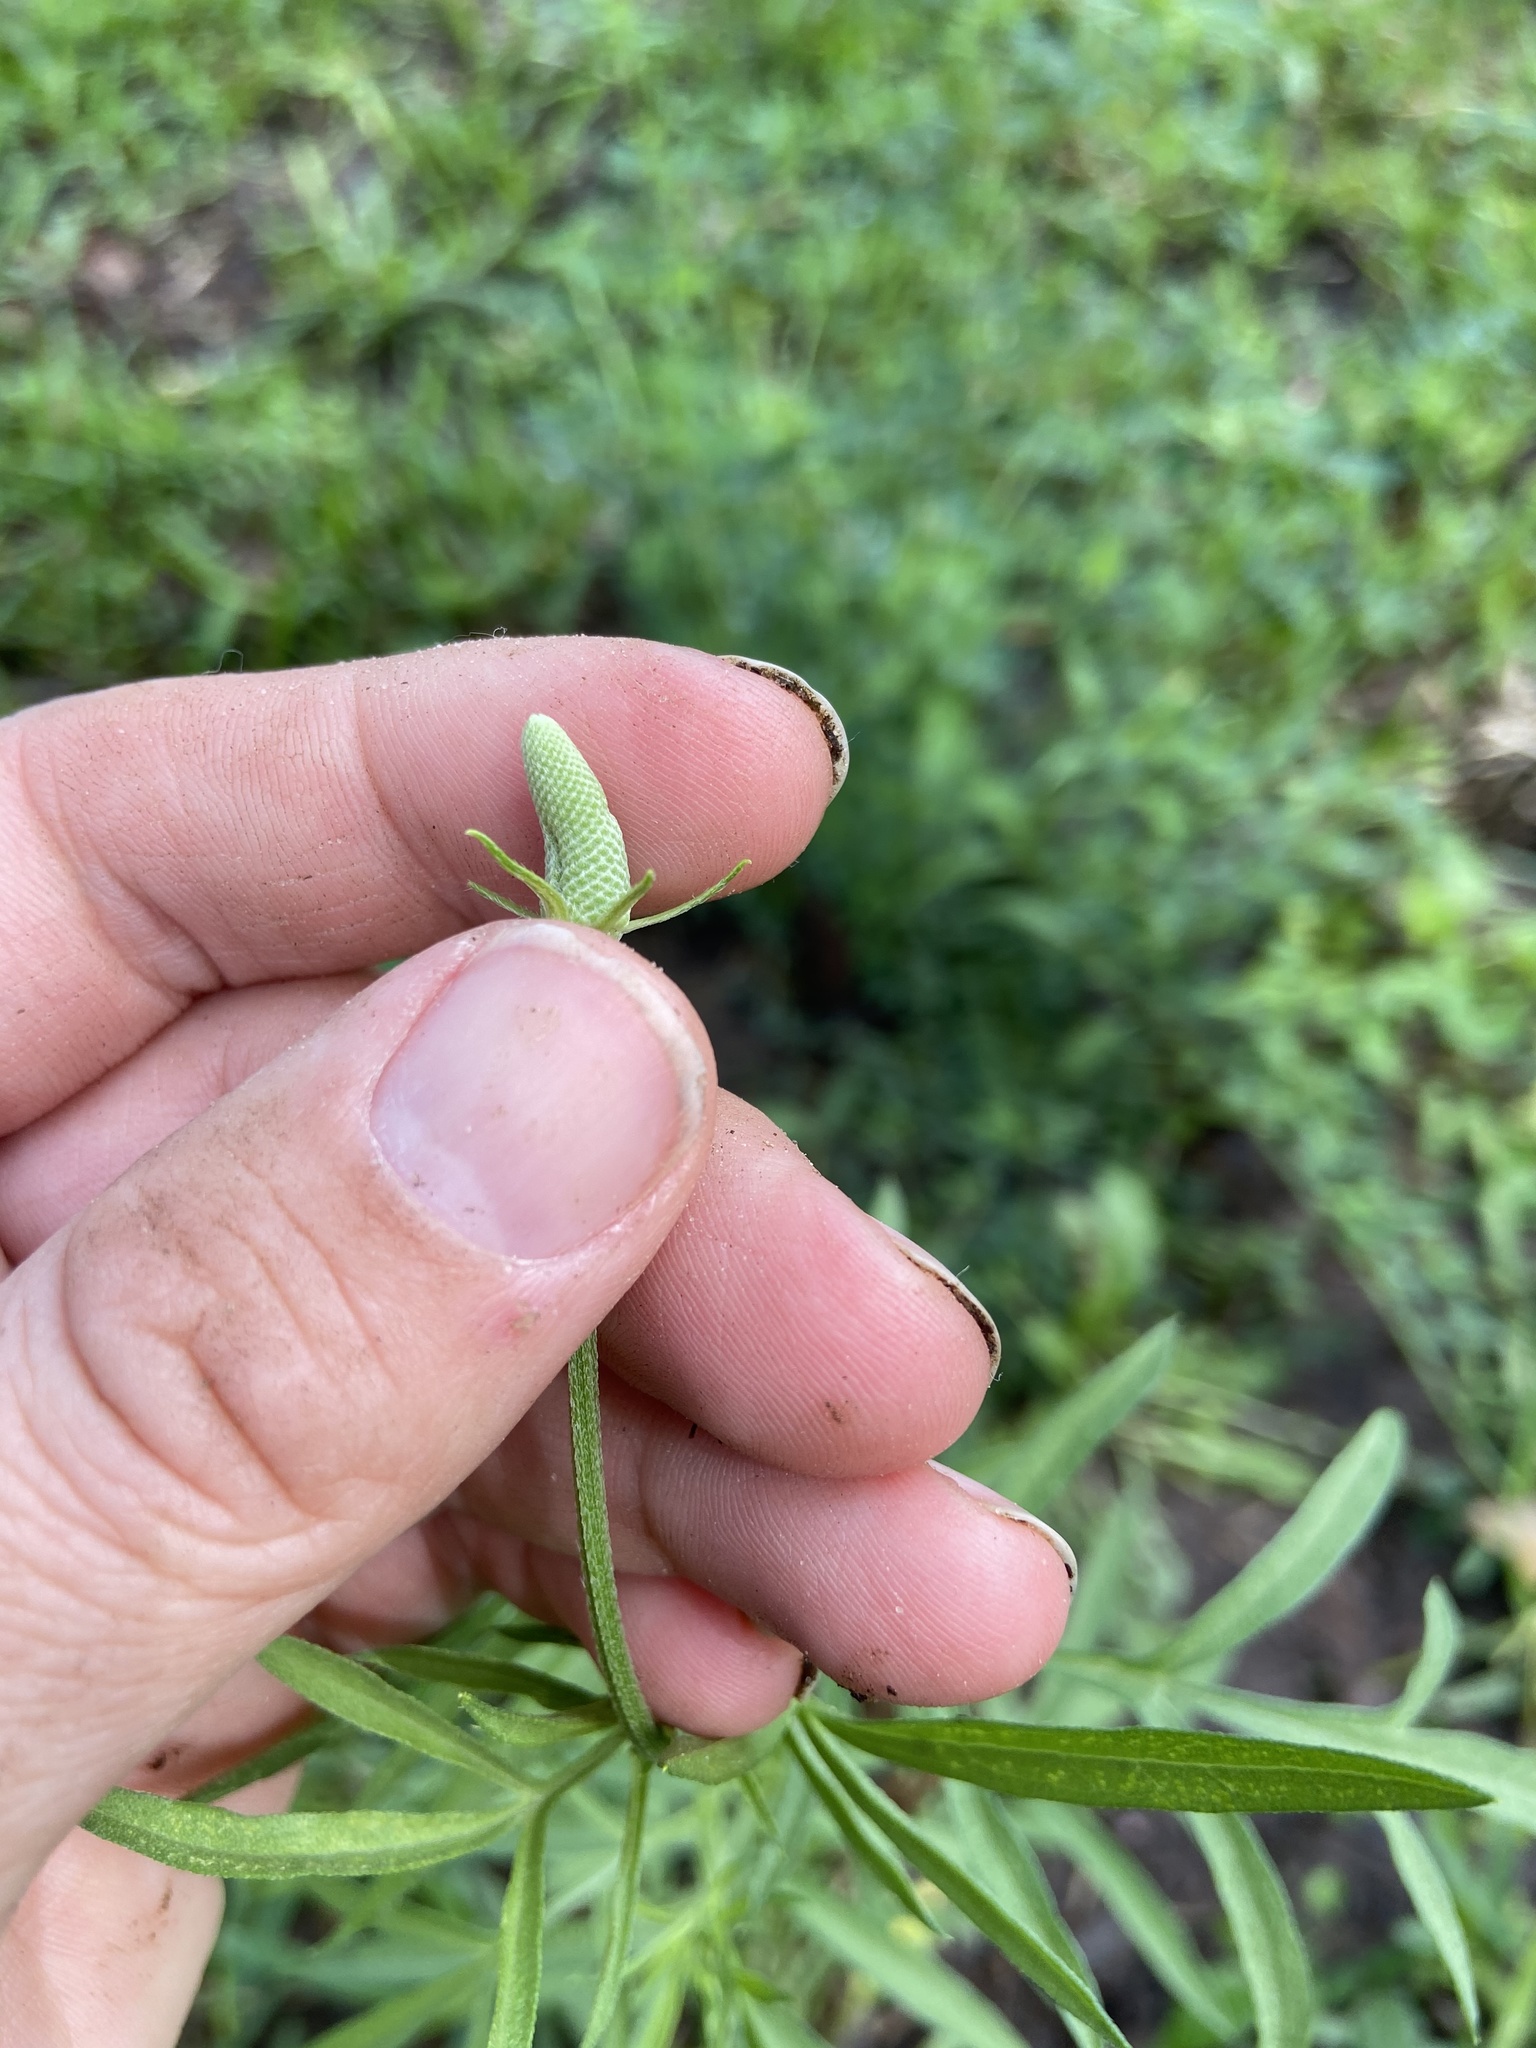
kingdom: Plantae
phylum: Tracheophyta
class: Magnoliopsida
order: Asterales
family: Asteraceae
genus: Ratibida
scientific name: Ratibida columnifera
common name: Prairie coneflower
